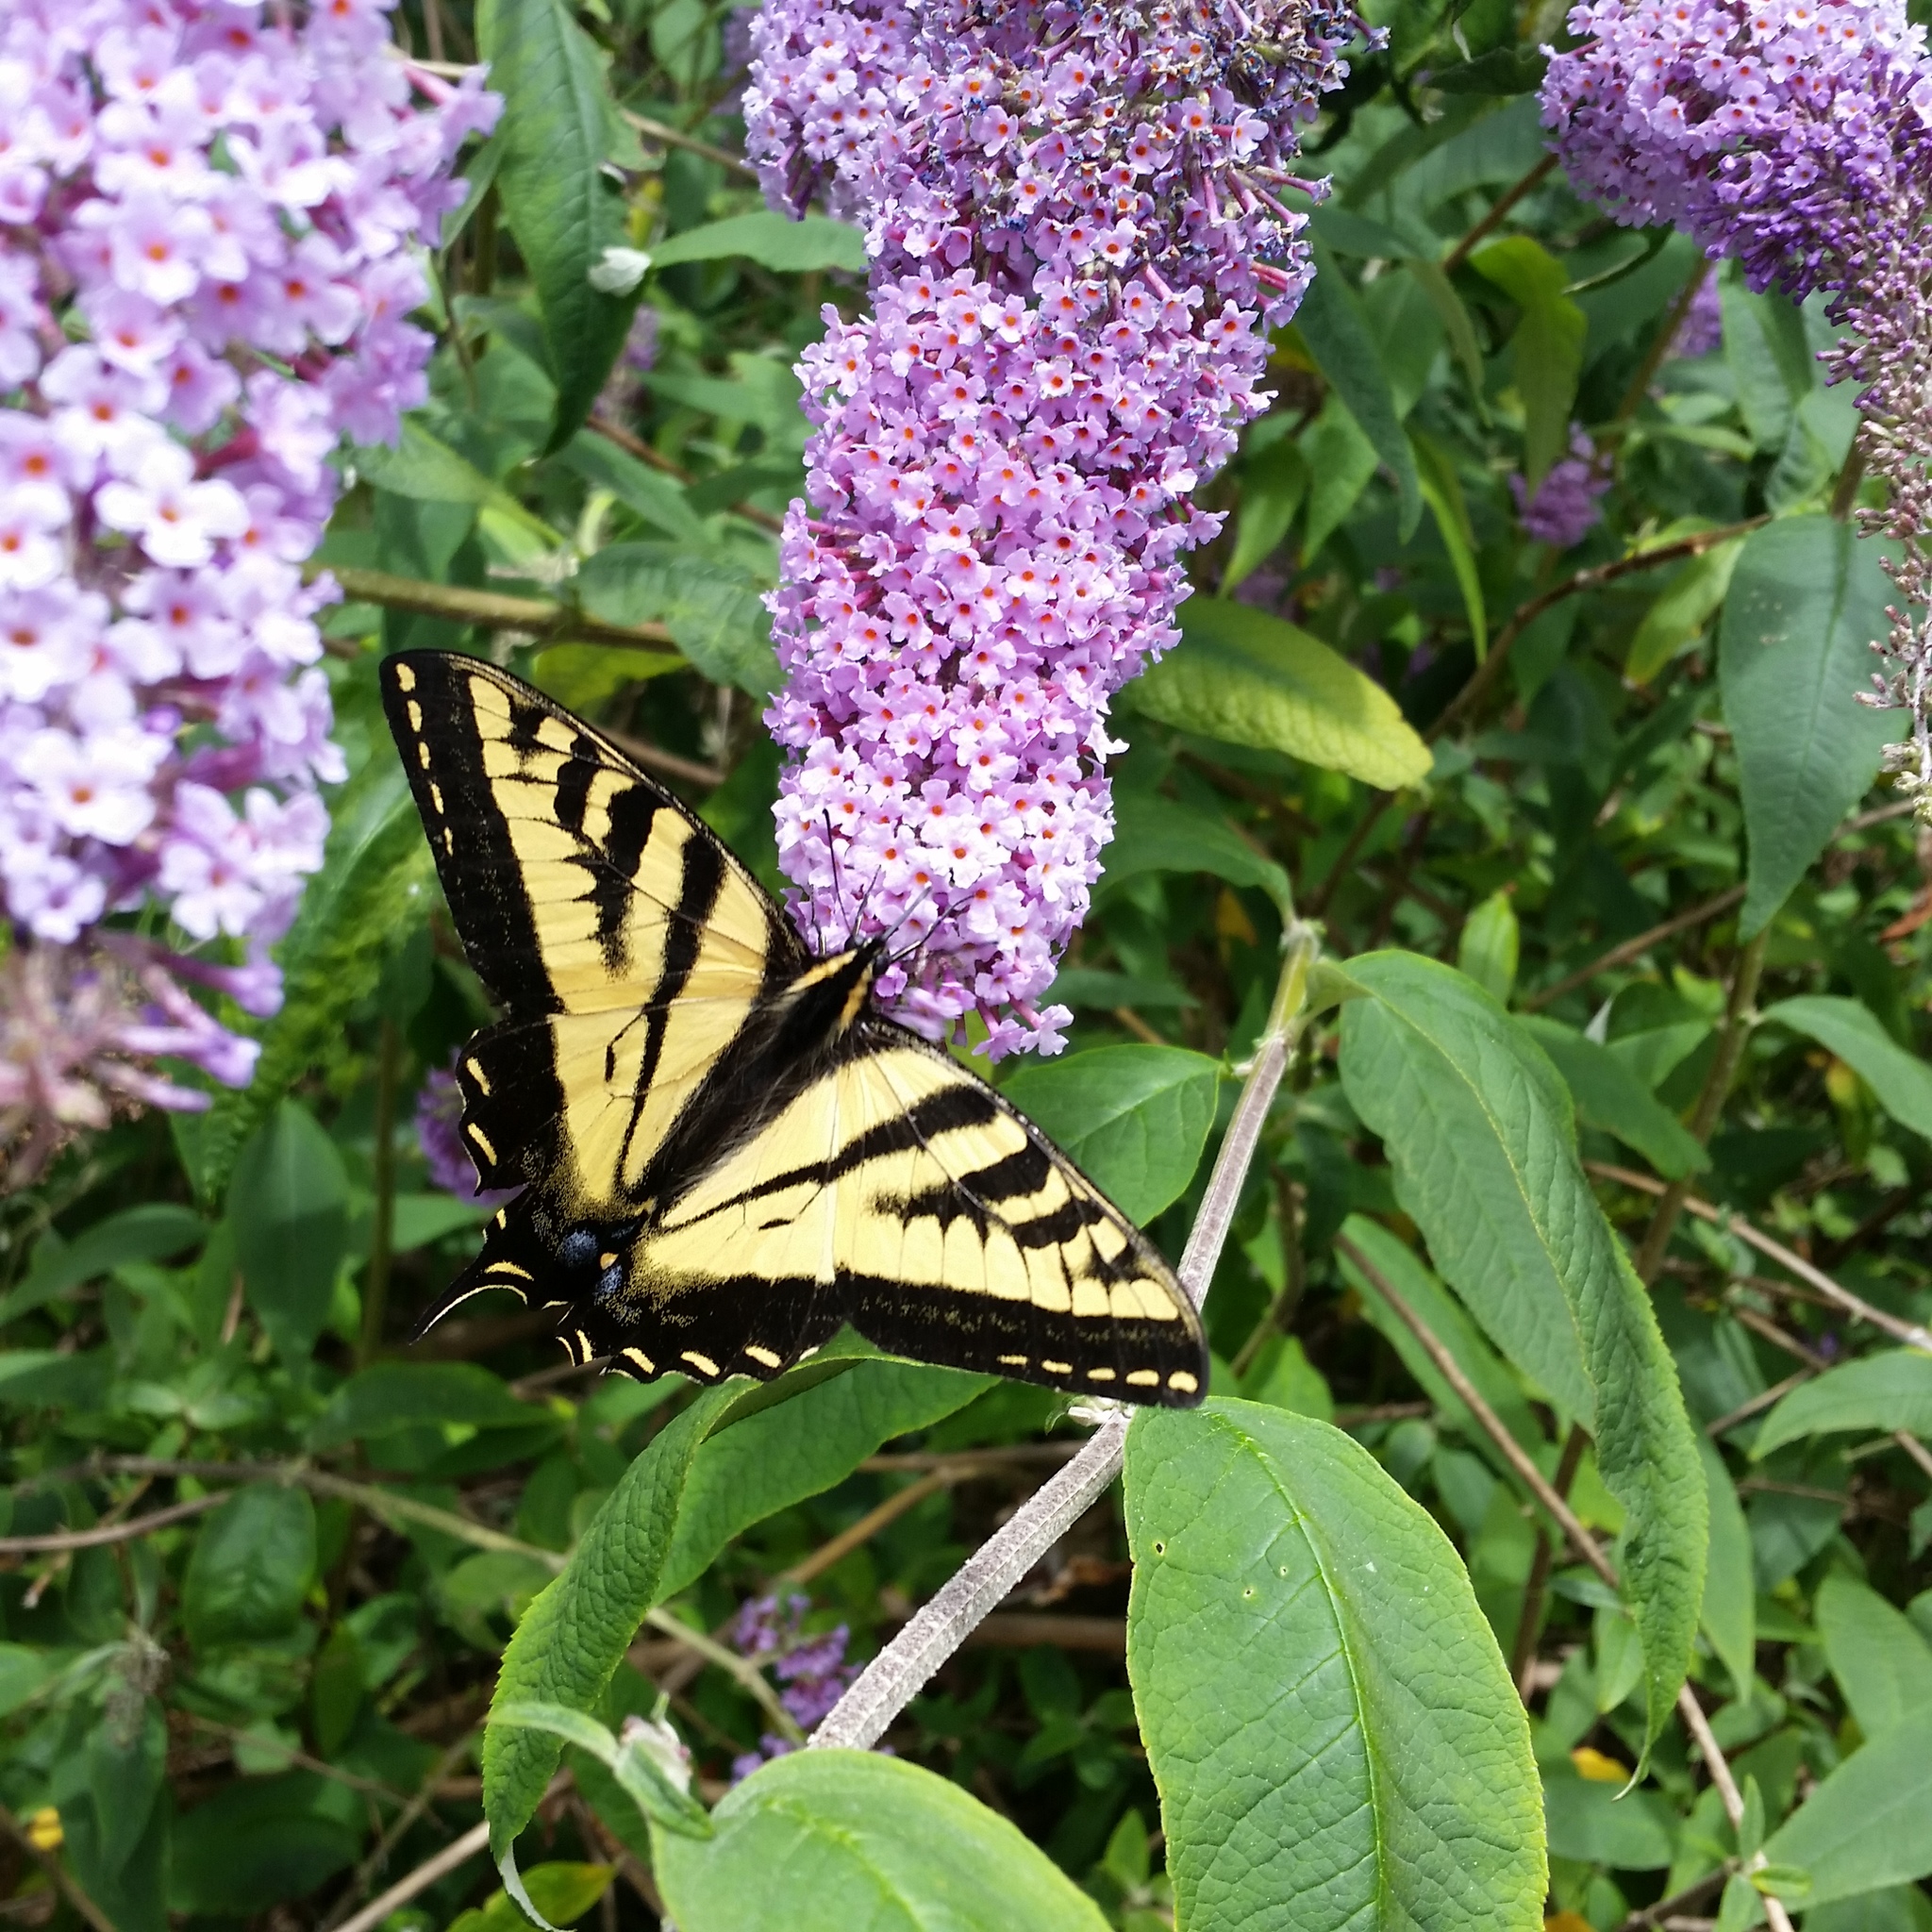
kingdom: Animalia
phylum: Arthropoda
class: Insecta
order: Lepidoptera
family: Papilionidae
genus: Papilio
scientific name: Papilio rutulus
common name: Western tiger swallowtail
